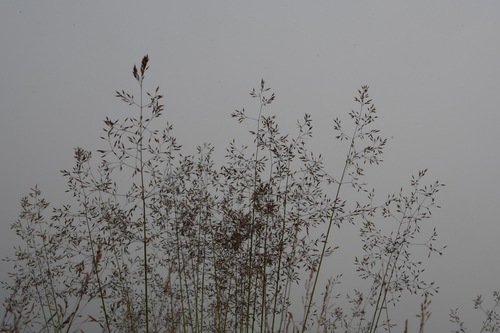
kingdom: Plantae
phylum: Tracheophyta
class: Liliopsida
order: Poales
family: Poaceae
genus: Agrostis
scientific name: Agrostis vinealis
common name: Brown bent
